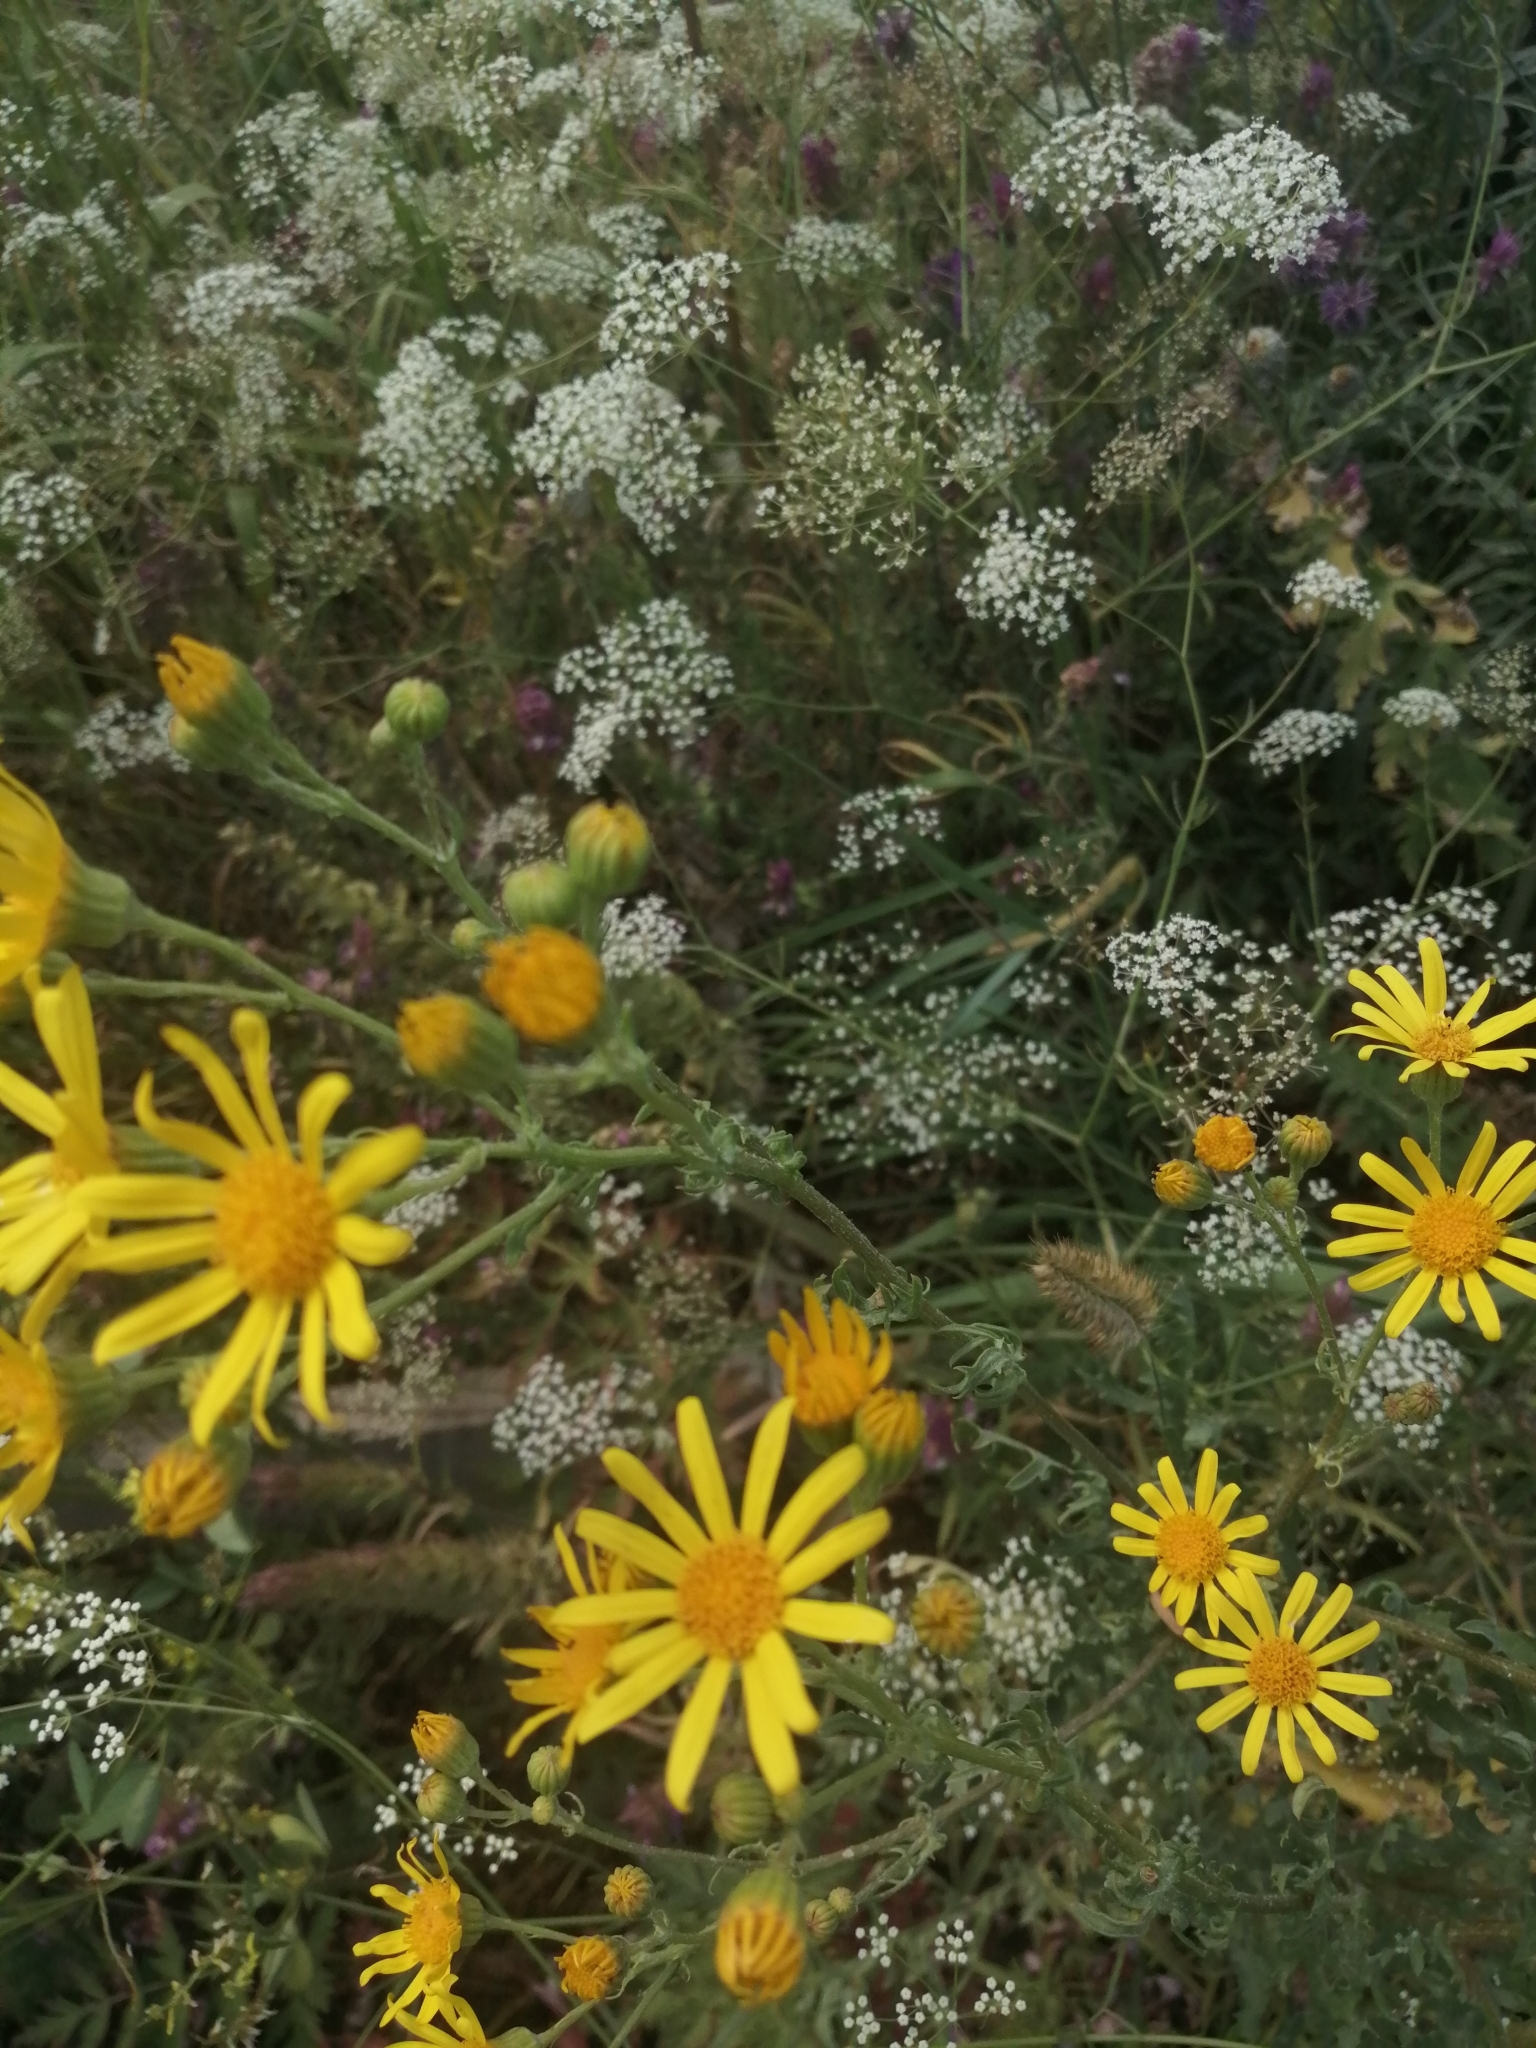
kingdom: Plantae
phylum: Tracheophyta
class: Magnoliopsida
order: Asterales
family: Asteraceae
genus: Jacobaea
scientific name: Jacobaea vulgaris
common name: Stinking willie
